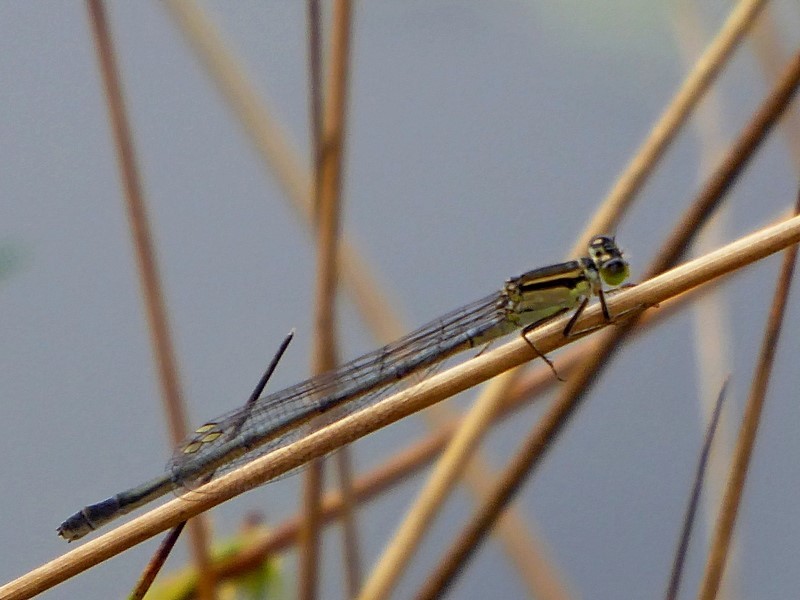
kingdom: Animalia
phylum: Arthropoda
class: Insecta
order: Odonata
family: Coenagrionidae
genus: Ischnura
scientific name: Ischnura heterosticta
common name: Common bluetail
